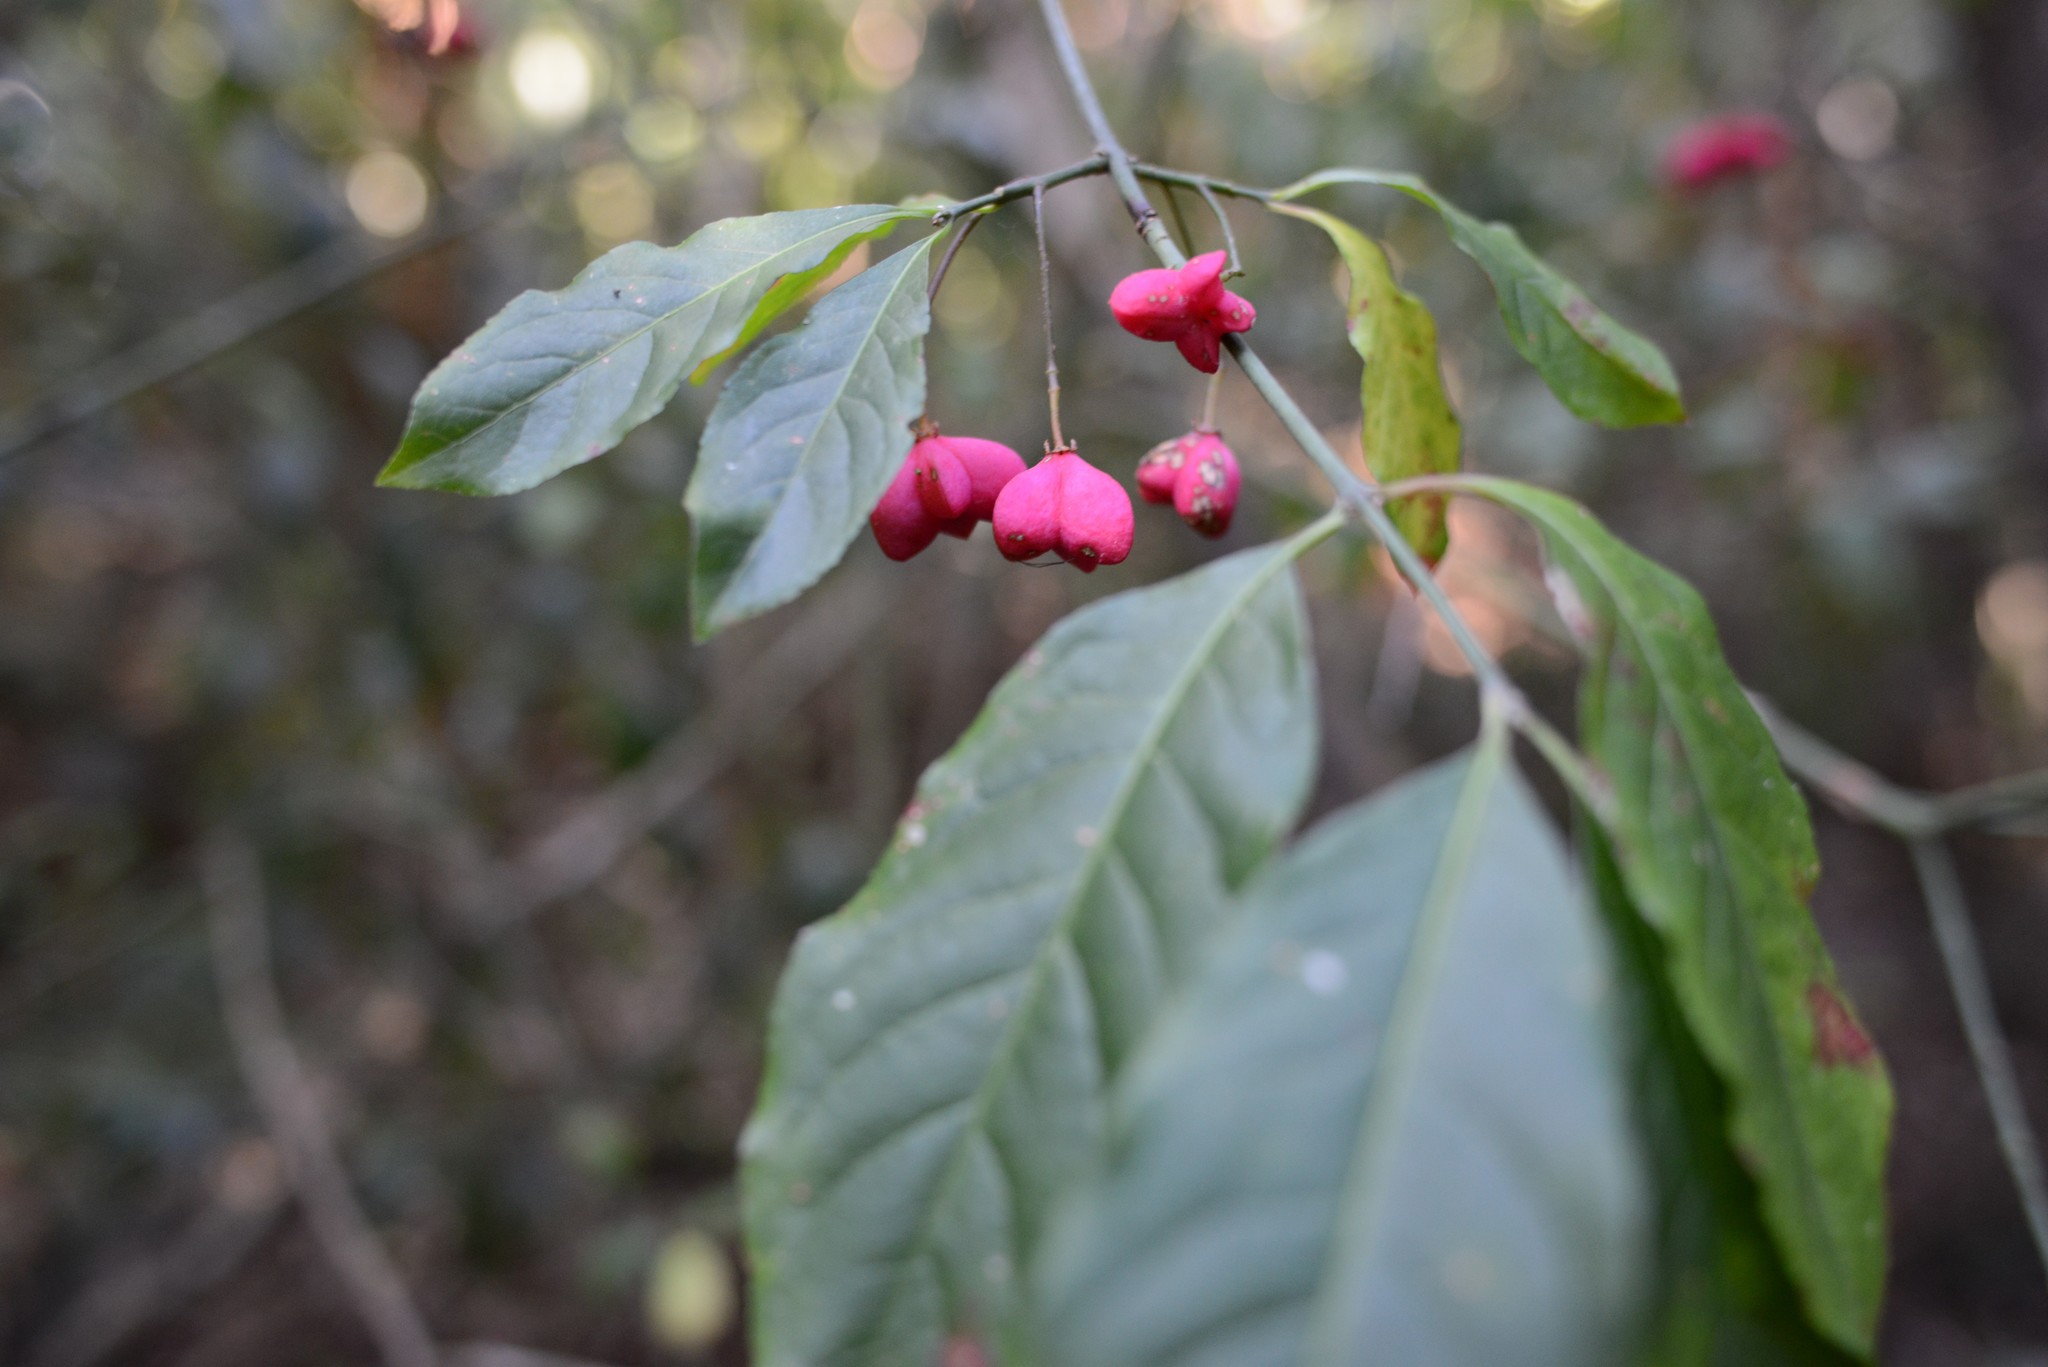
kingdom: Plantae
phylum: Tracheophyta
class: Magnoliopsida
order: Celastrales
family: Celastraceae
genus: Euonymus
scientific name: Euonymus europaeus
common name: Spindle
